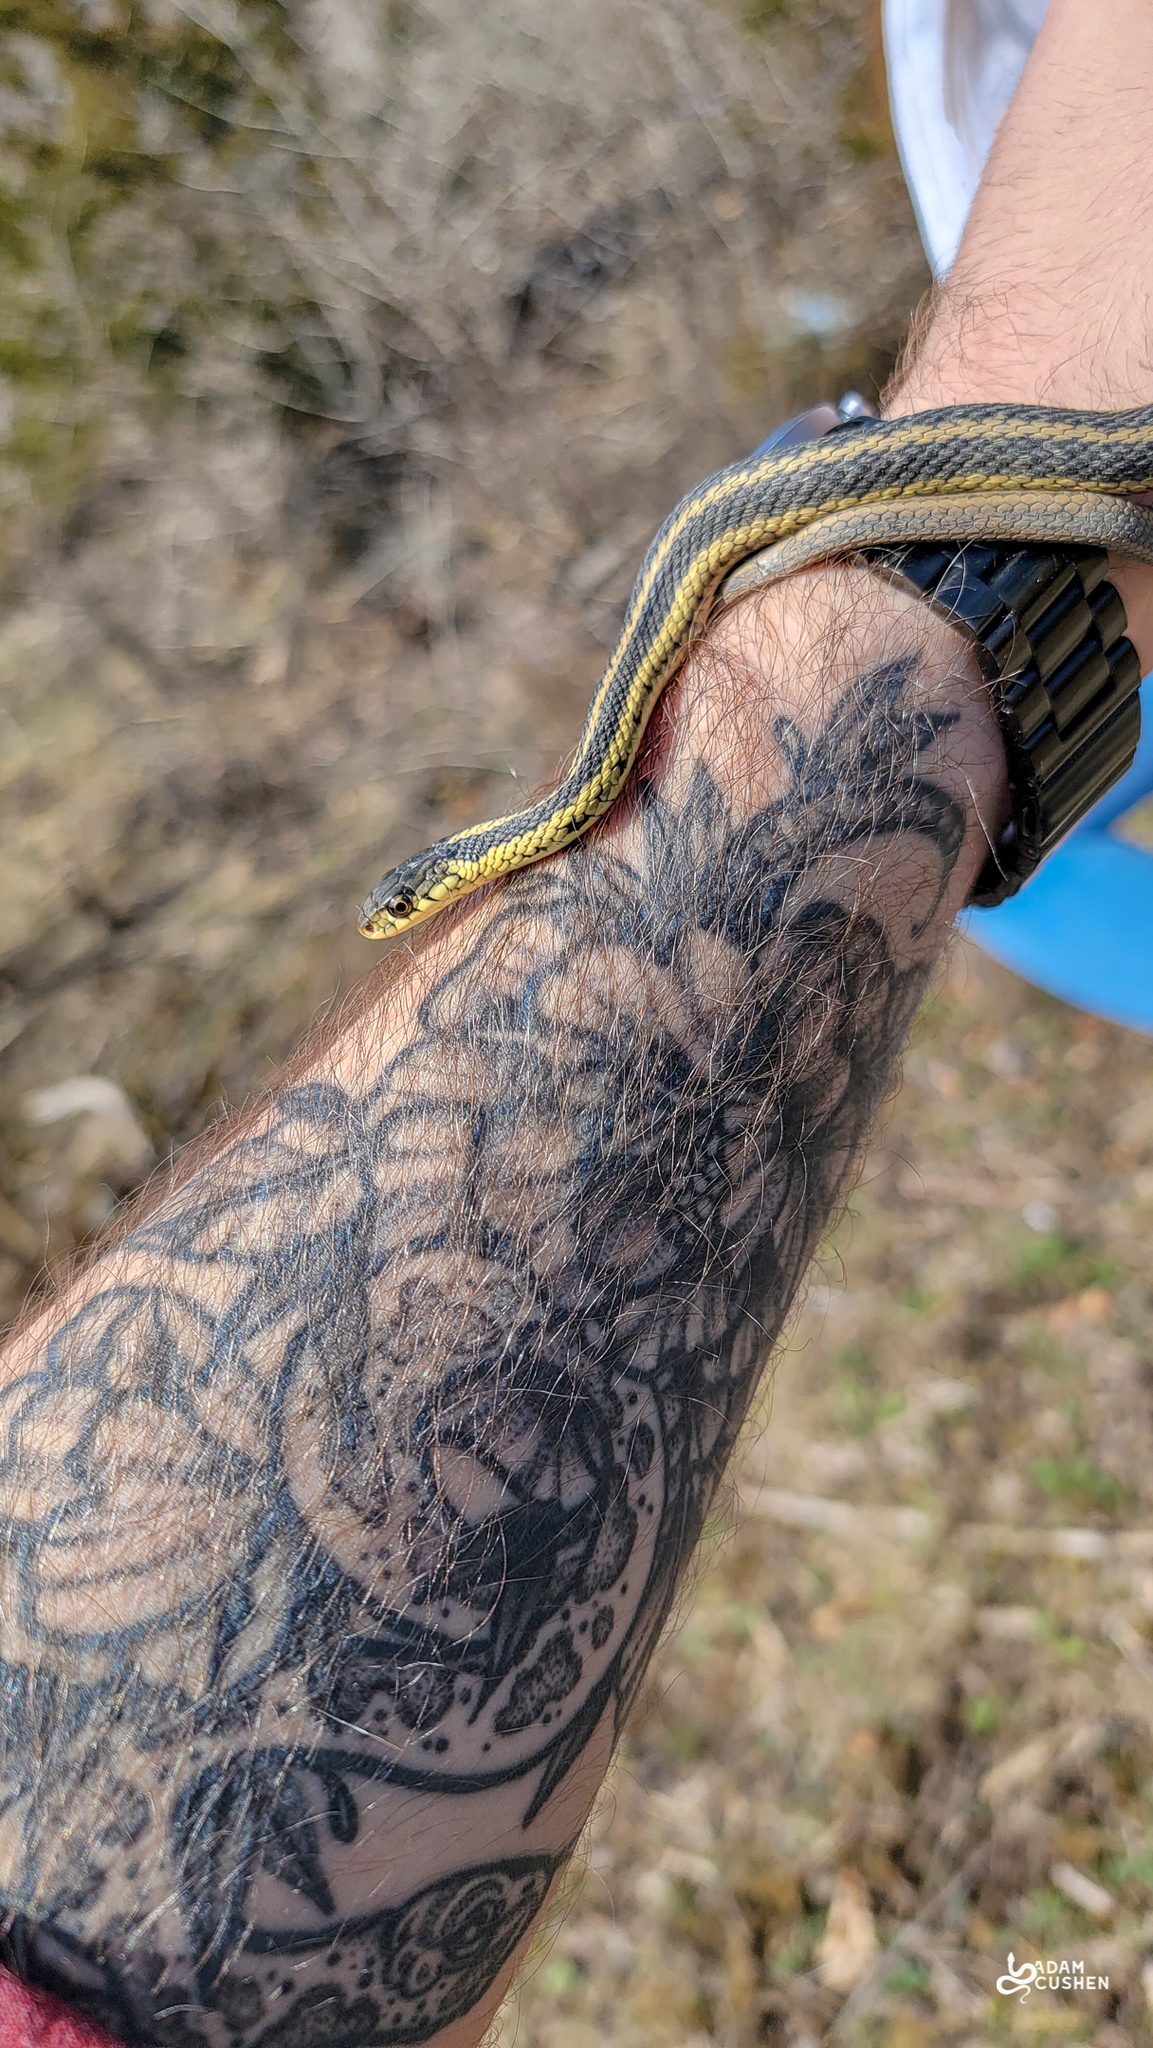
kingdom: Animalia
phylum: Chordata
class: Squamata
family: Colubridae
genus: Thamnophis
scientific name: Thamnophis sirtalis
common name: Common garter snake
